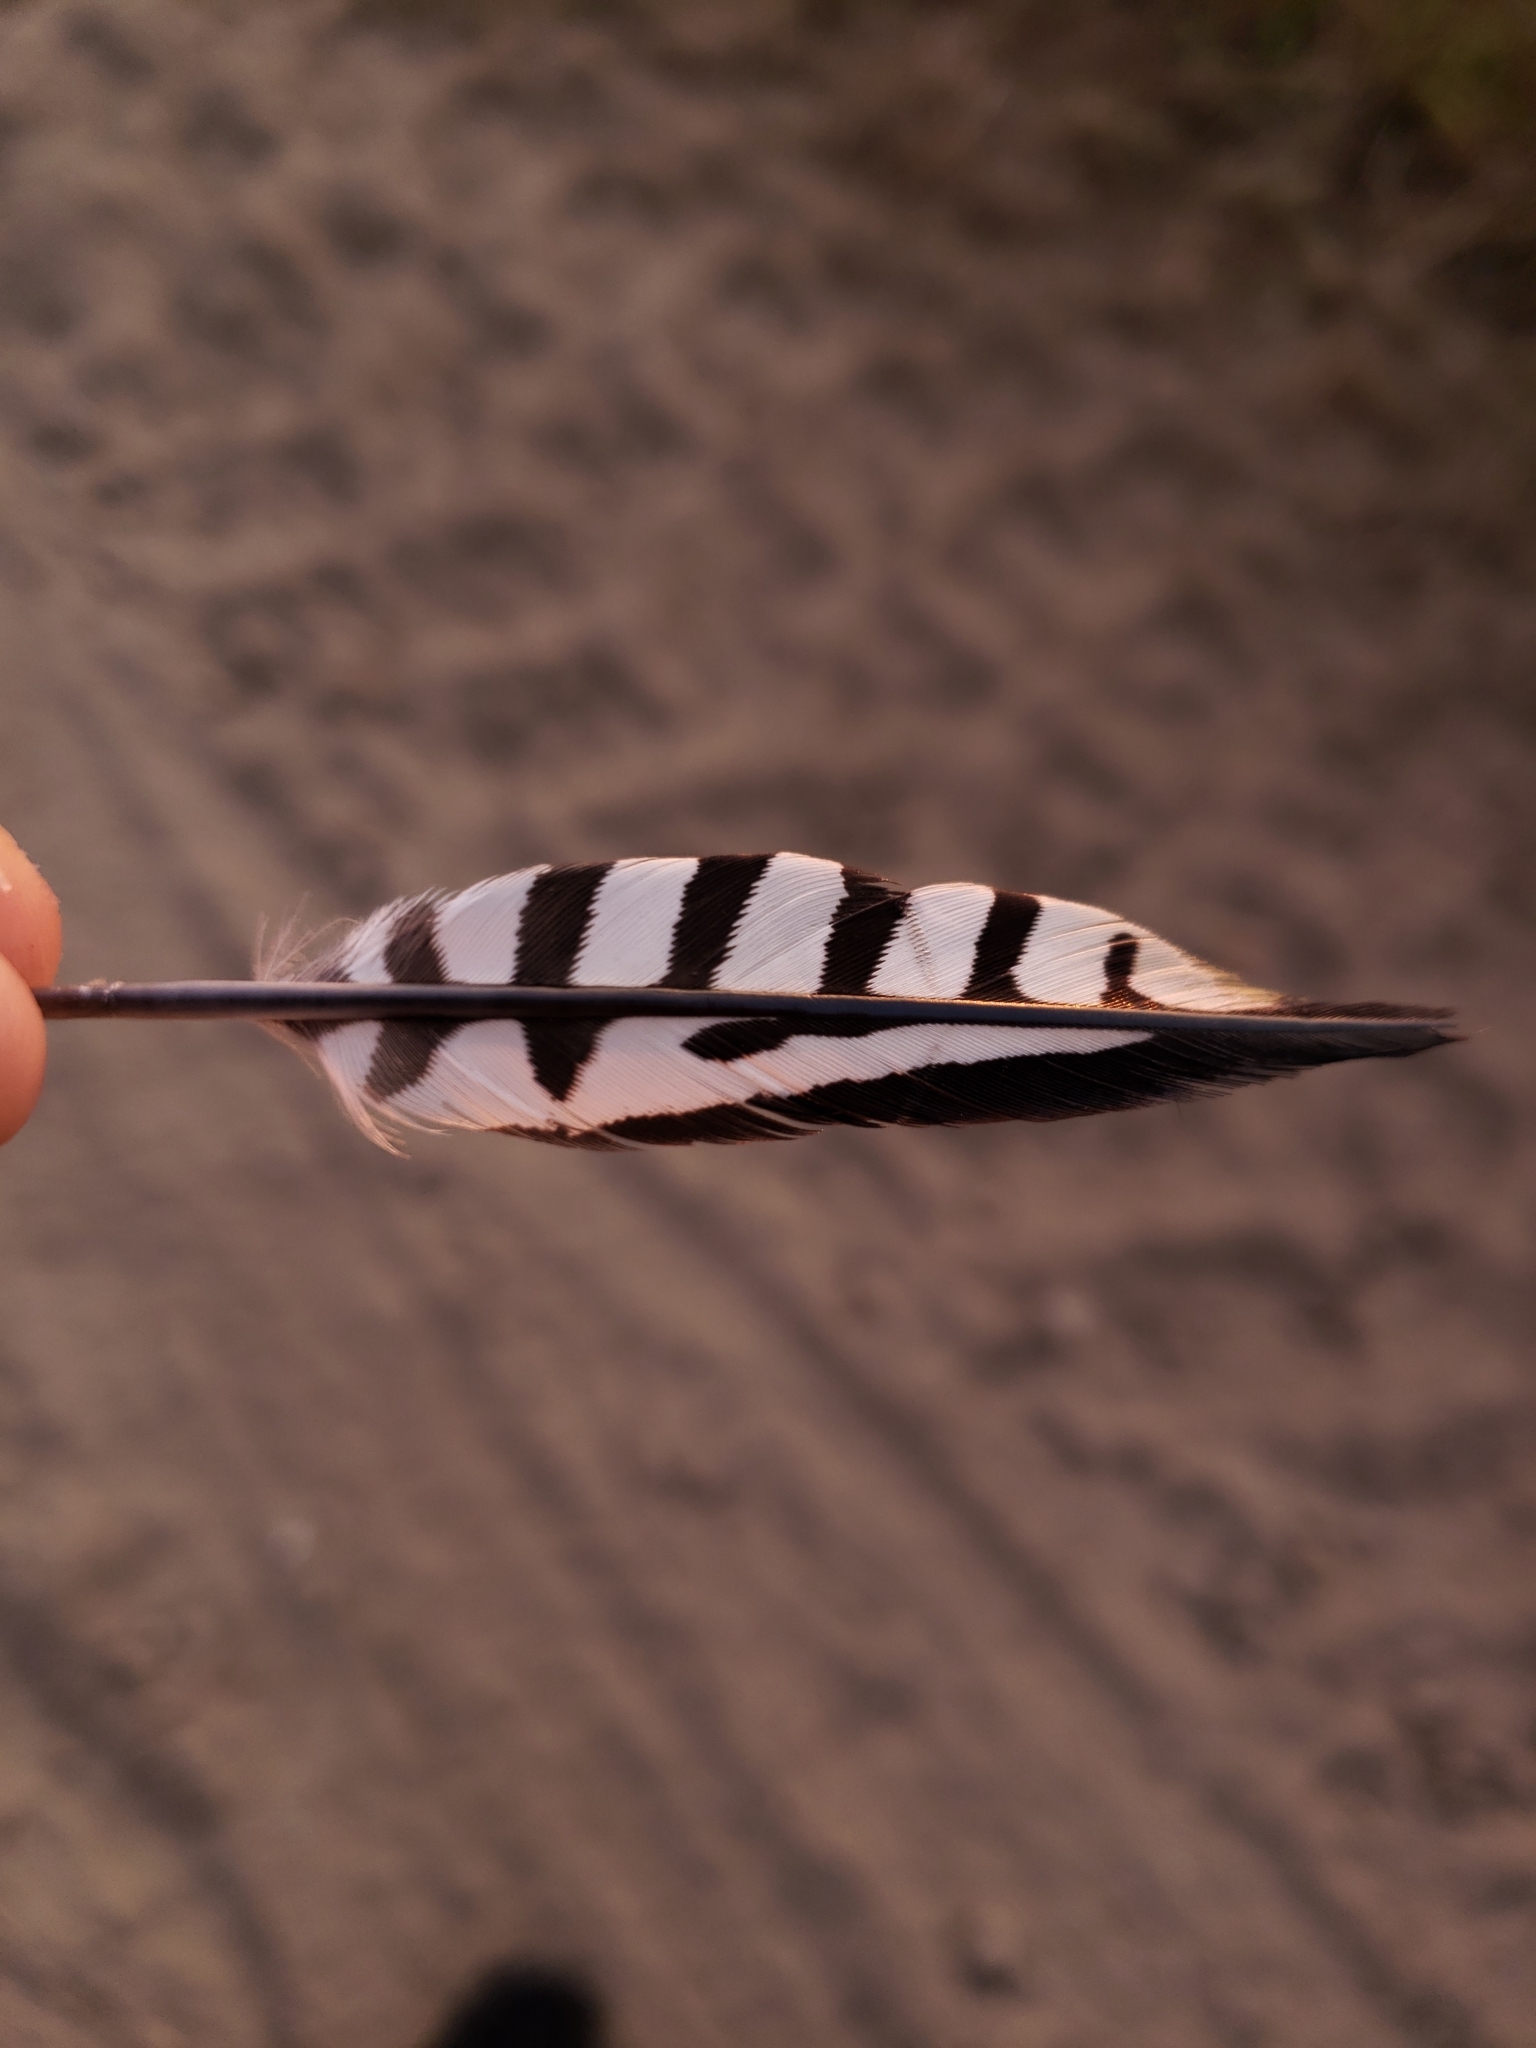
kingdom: Animalia
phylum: Chordata
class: Aves
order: Piciformes
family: Picidae
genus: Melanerpes
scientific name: Melanerpes carolinus
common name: Red-bellied woodpecker
